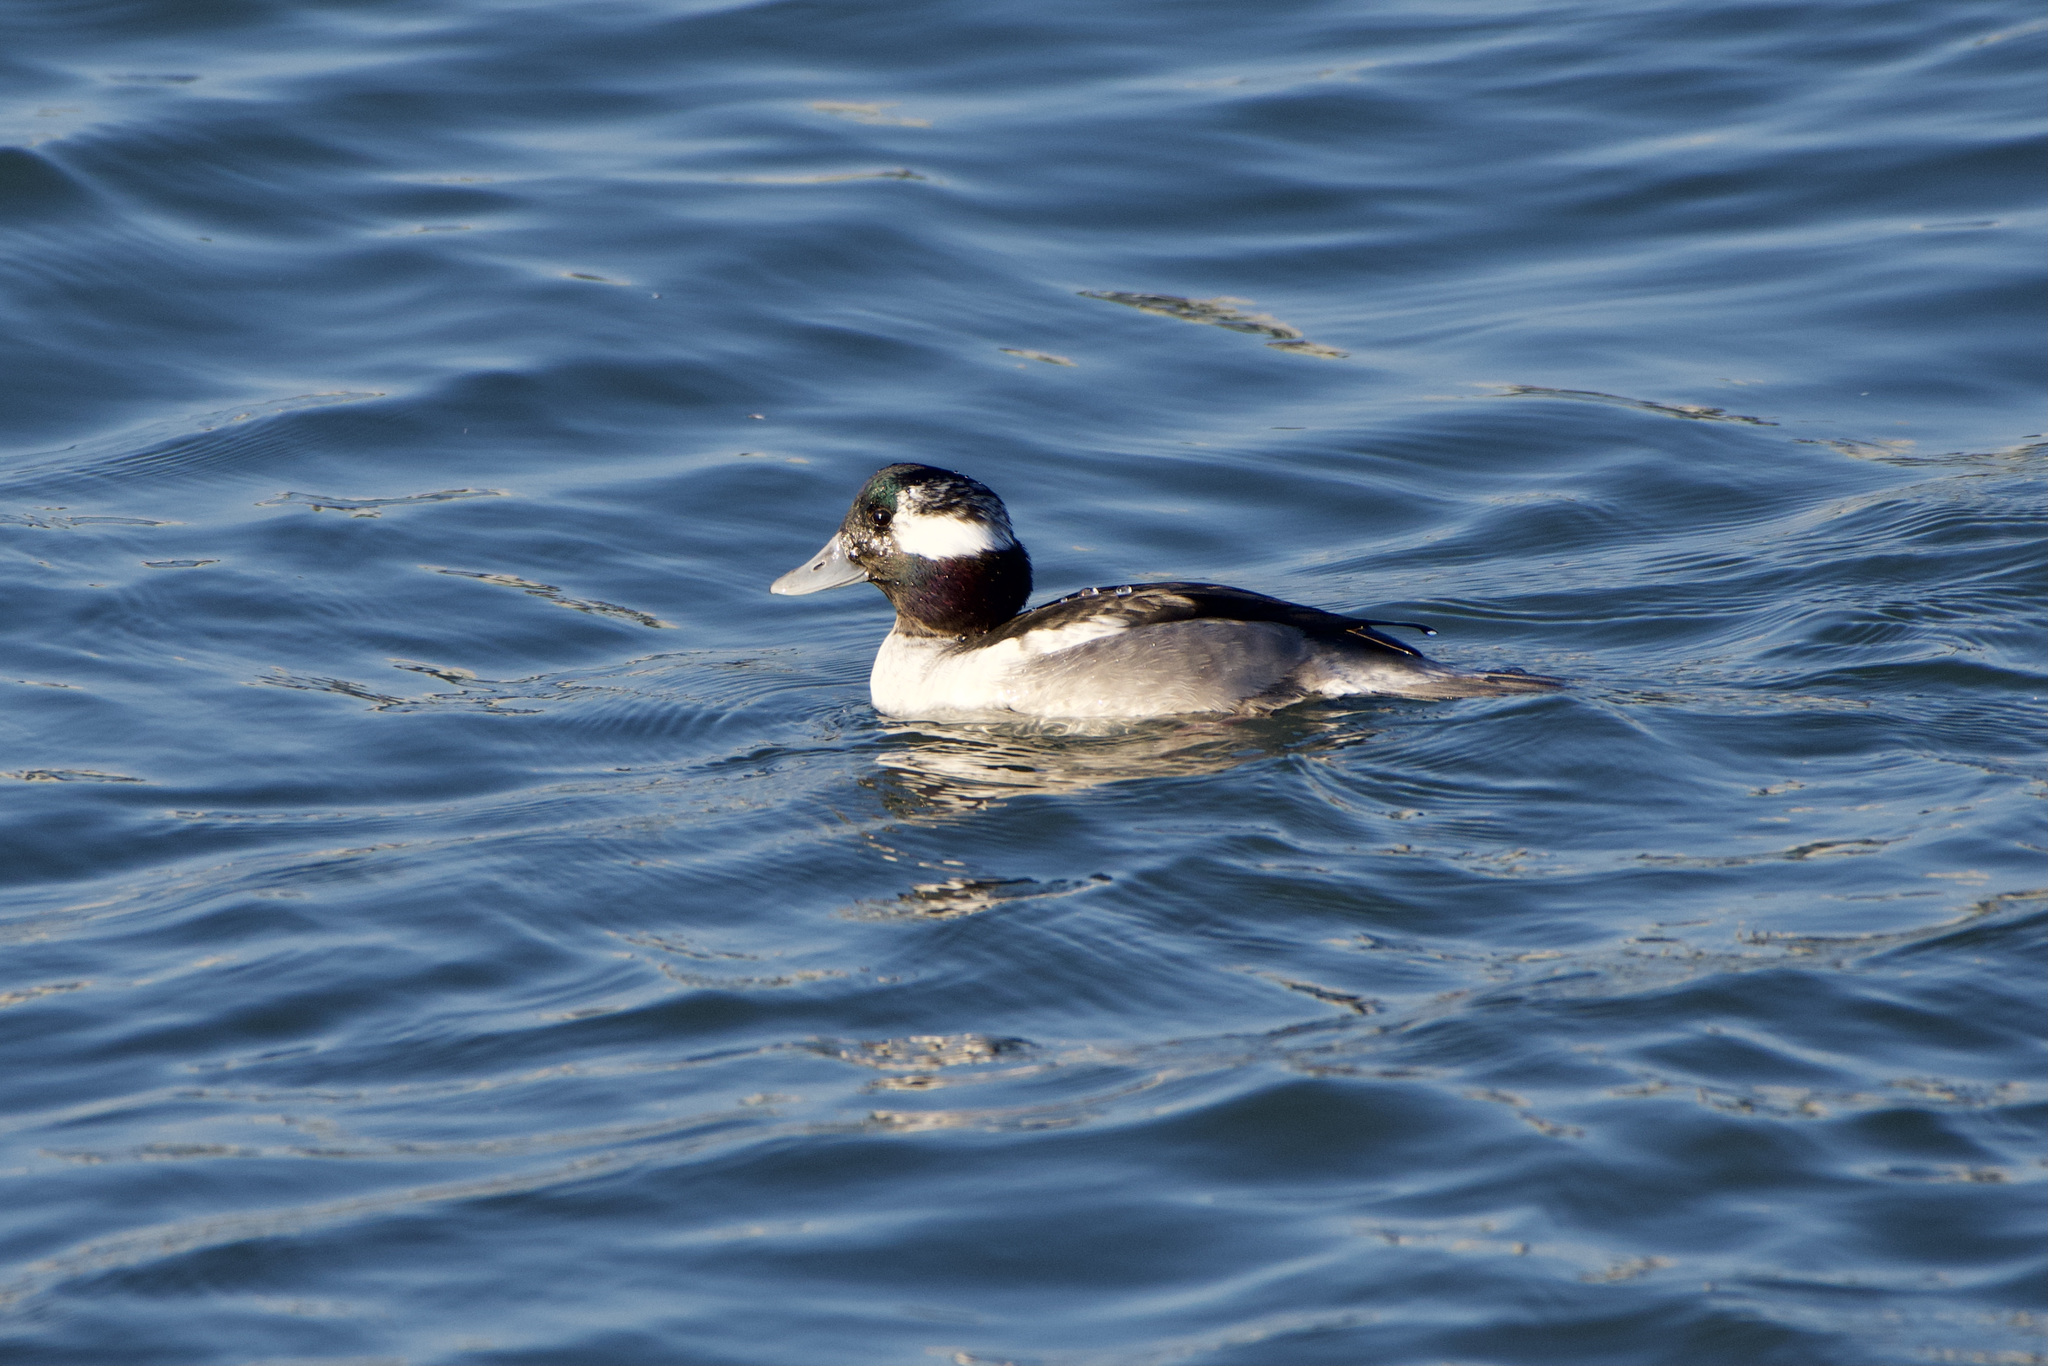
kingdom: Animalia
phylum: Chordata
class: Aves
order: Anseriformes
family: Anatidae
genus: Bucephala
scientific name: Bucephala albeola
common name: Bufflehead
